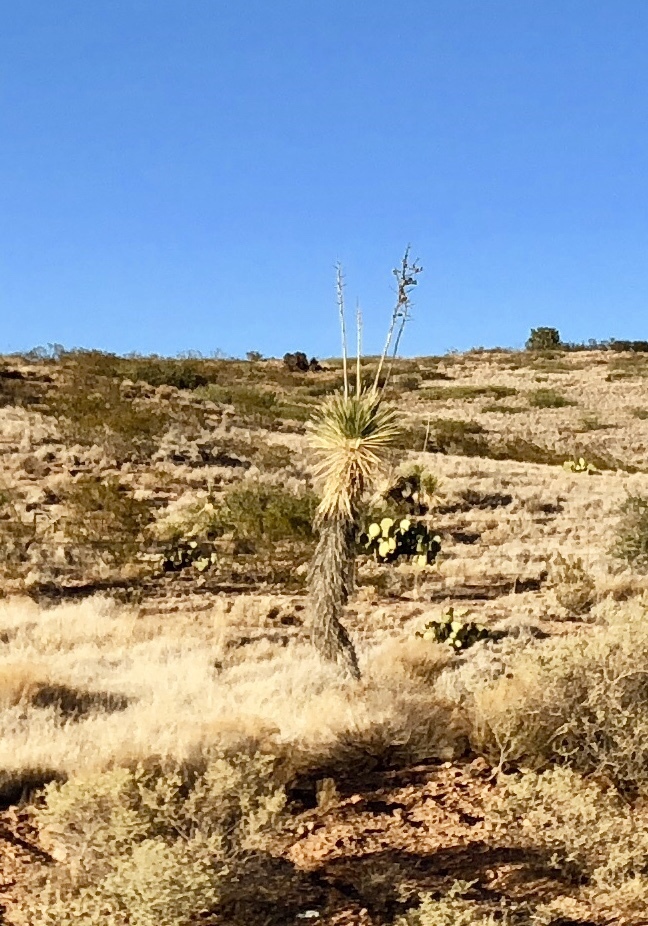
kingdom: Plantae
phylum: Tracheophyta
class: Liliopsida
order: Asparagales
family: Asparagaceae
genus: Yucca
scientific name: Yucca elata
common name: Palmella
